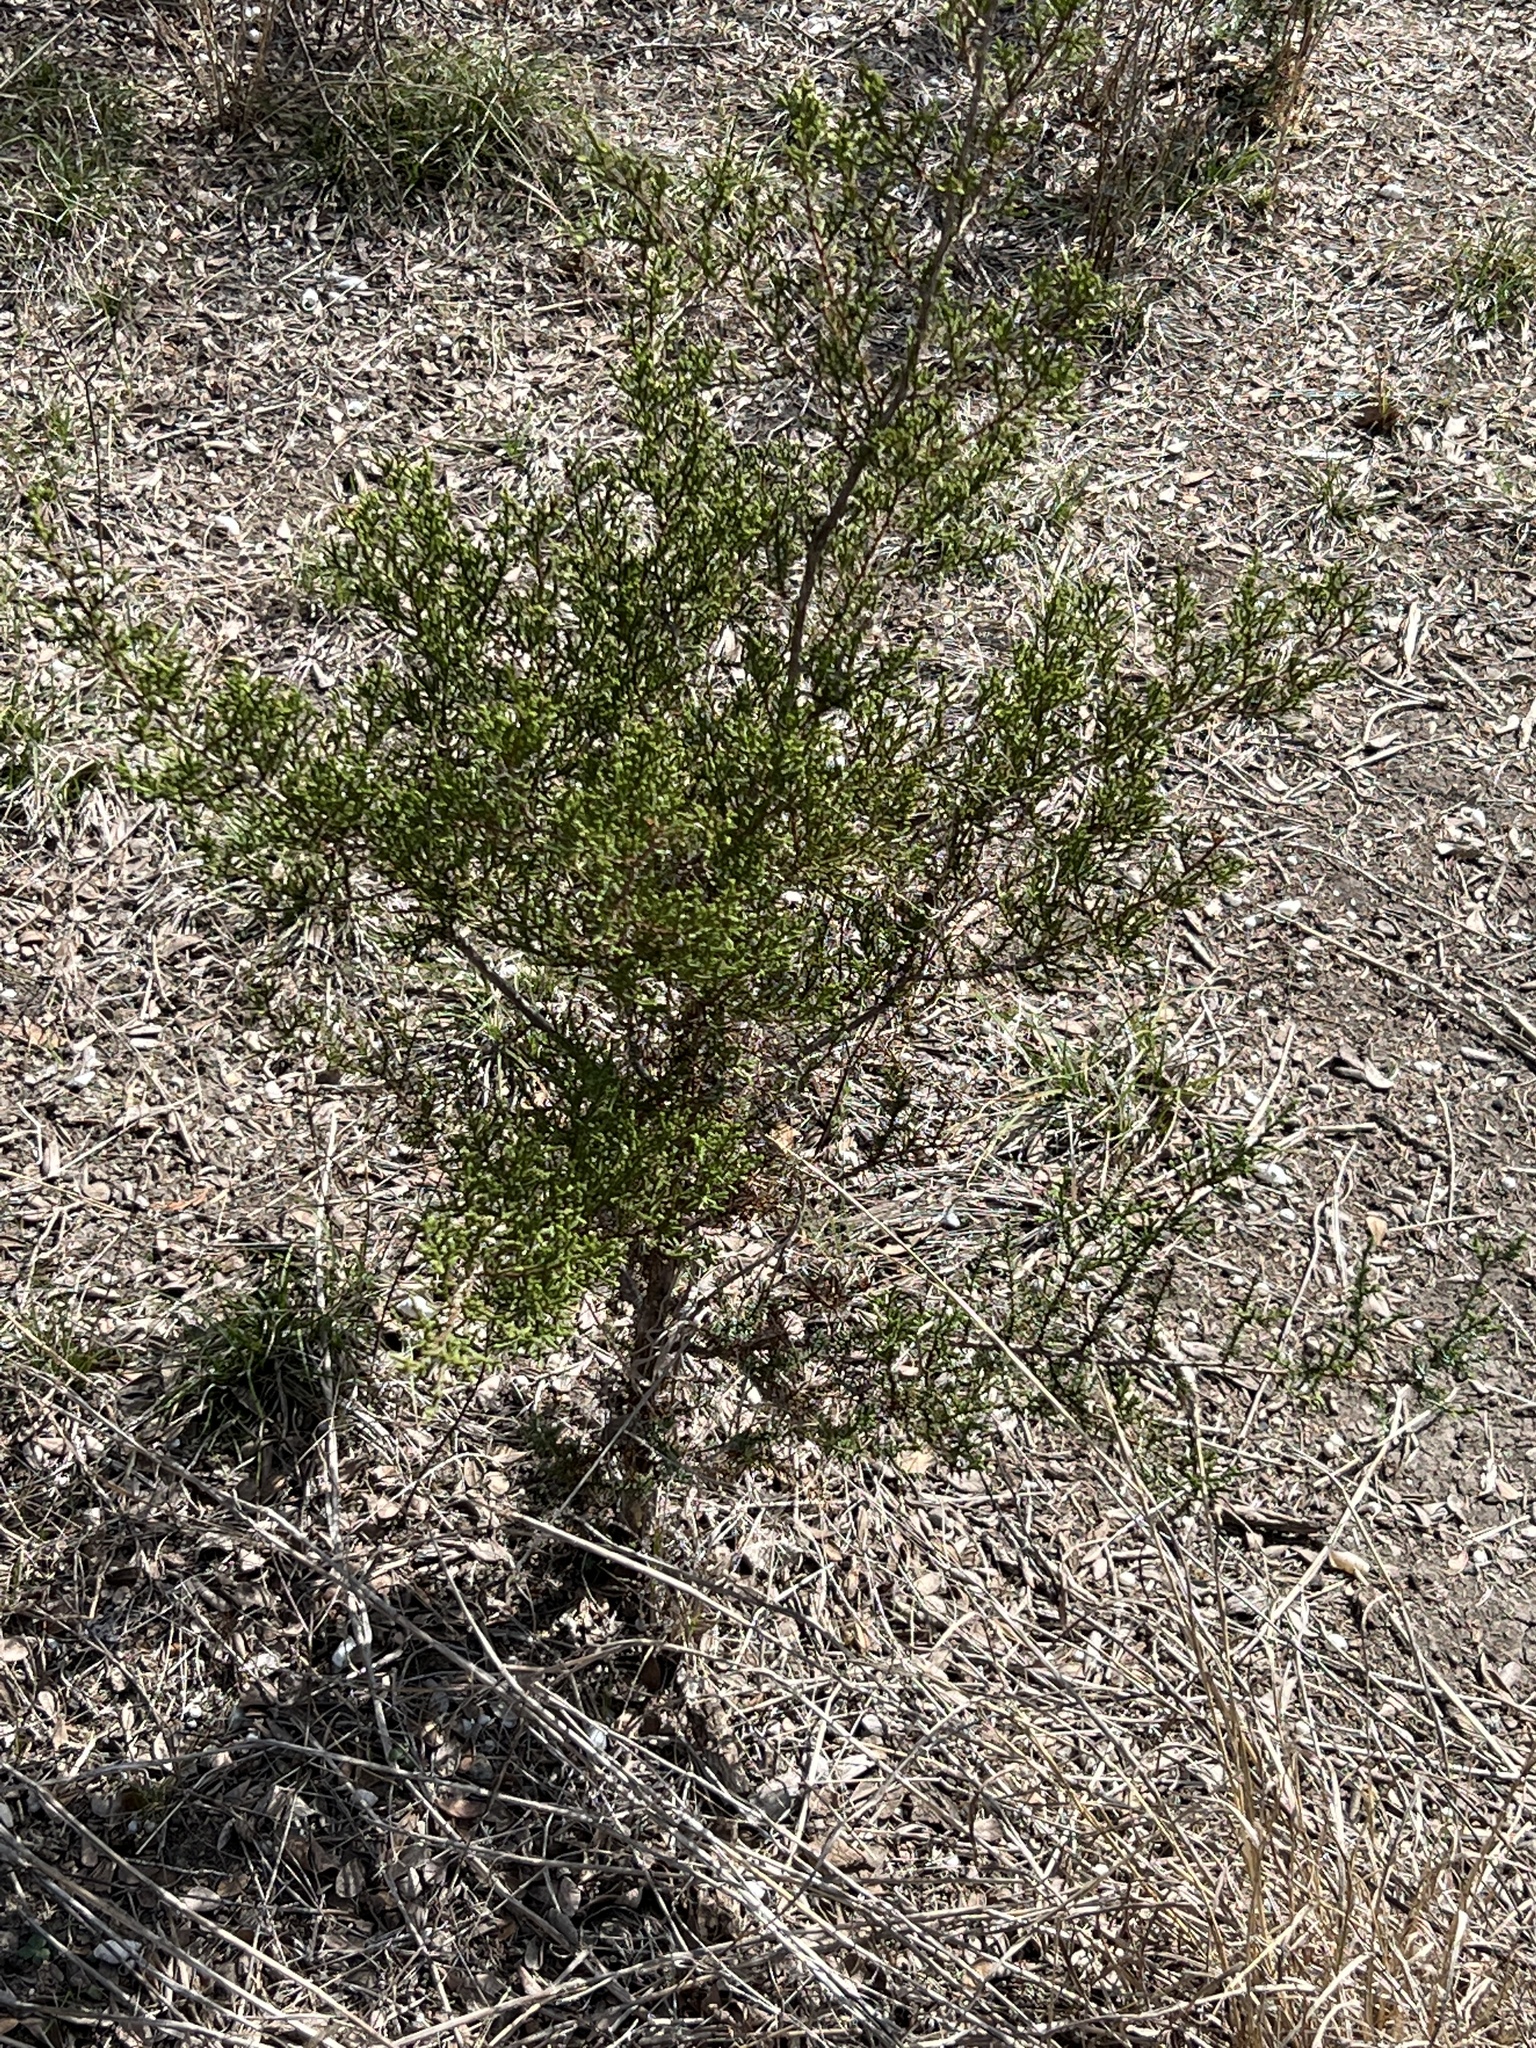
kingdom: Plantae
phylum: Tracheophyta
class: Pinopsida
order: Pinales
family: Cupressaceae
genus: Juniperus
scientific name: Juniperus ashei
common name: Mexican juniper
